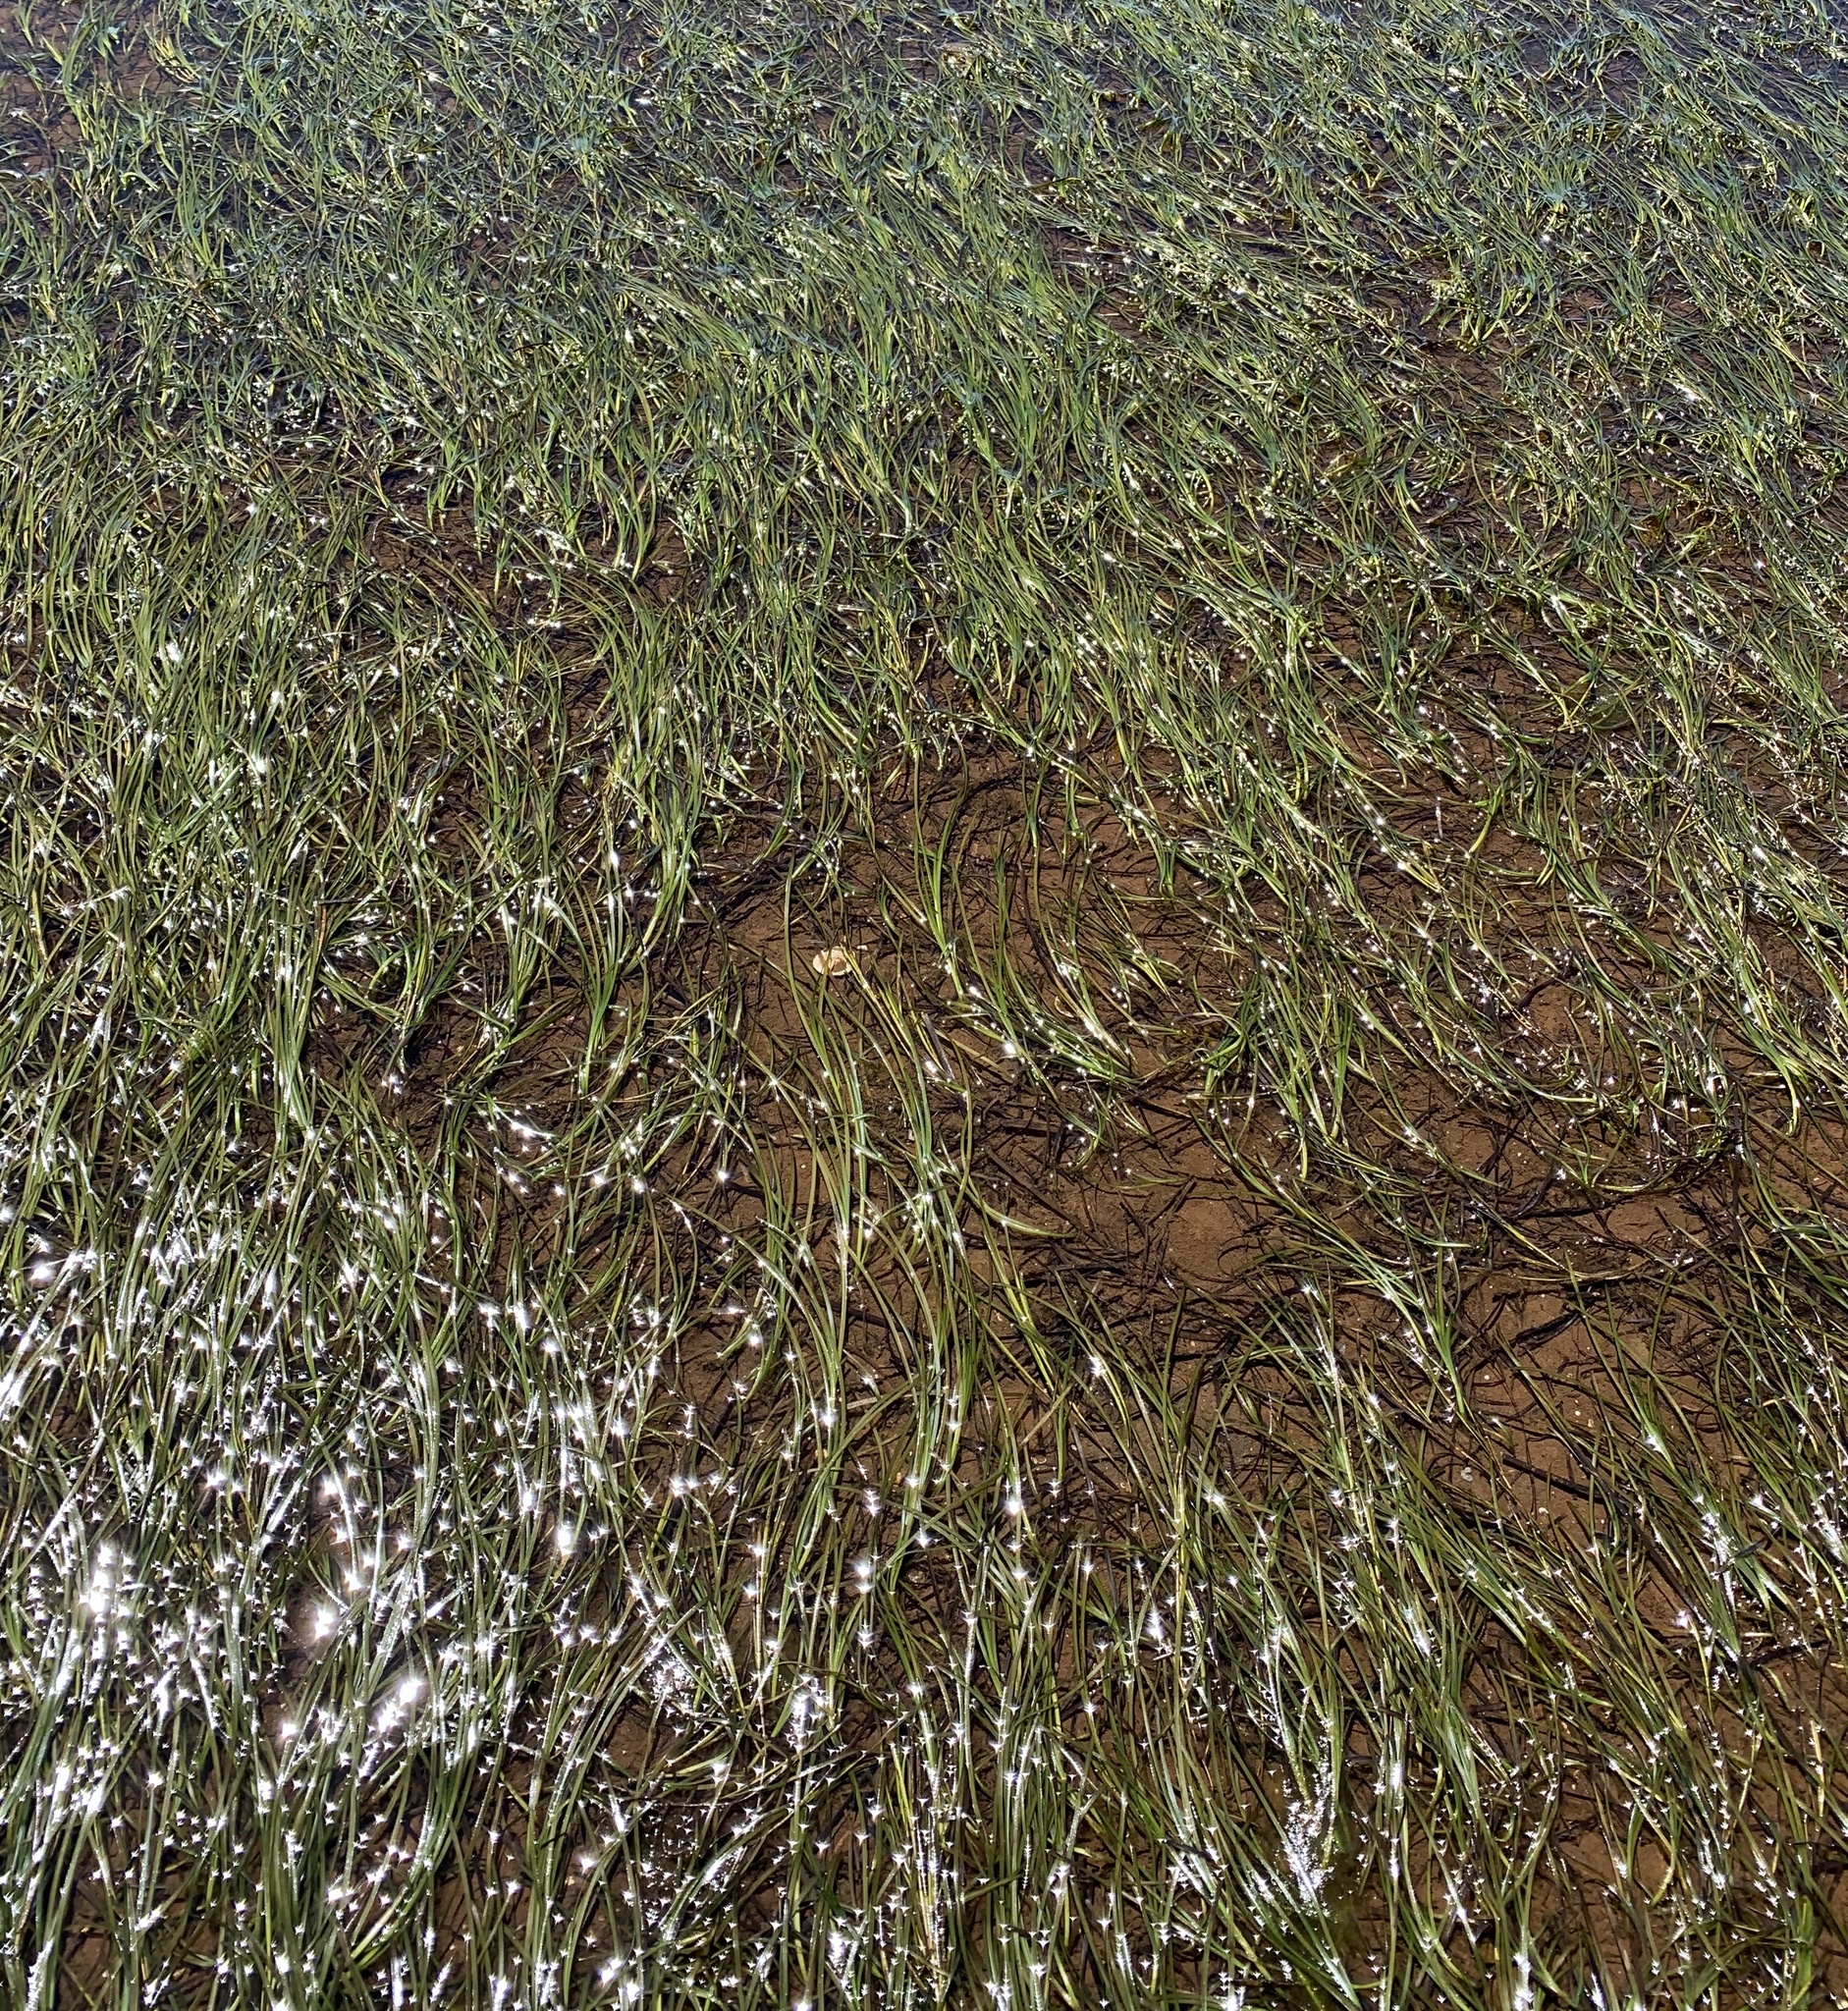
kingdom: Plantae
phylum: Tracheophyta
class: Liliopsida
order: Alismatales
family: Zosteraceae
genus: Zostera
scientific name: Zostera marina
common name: Eelgrass
